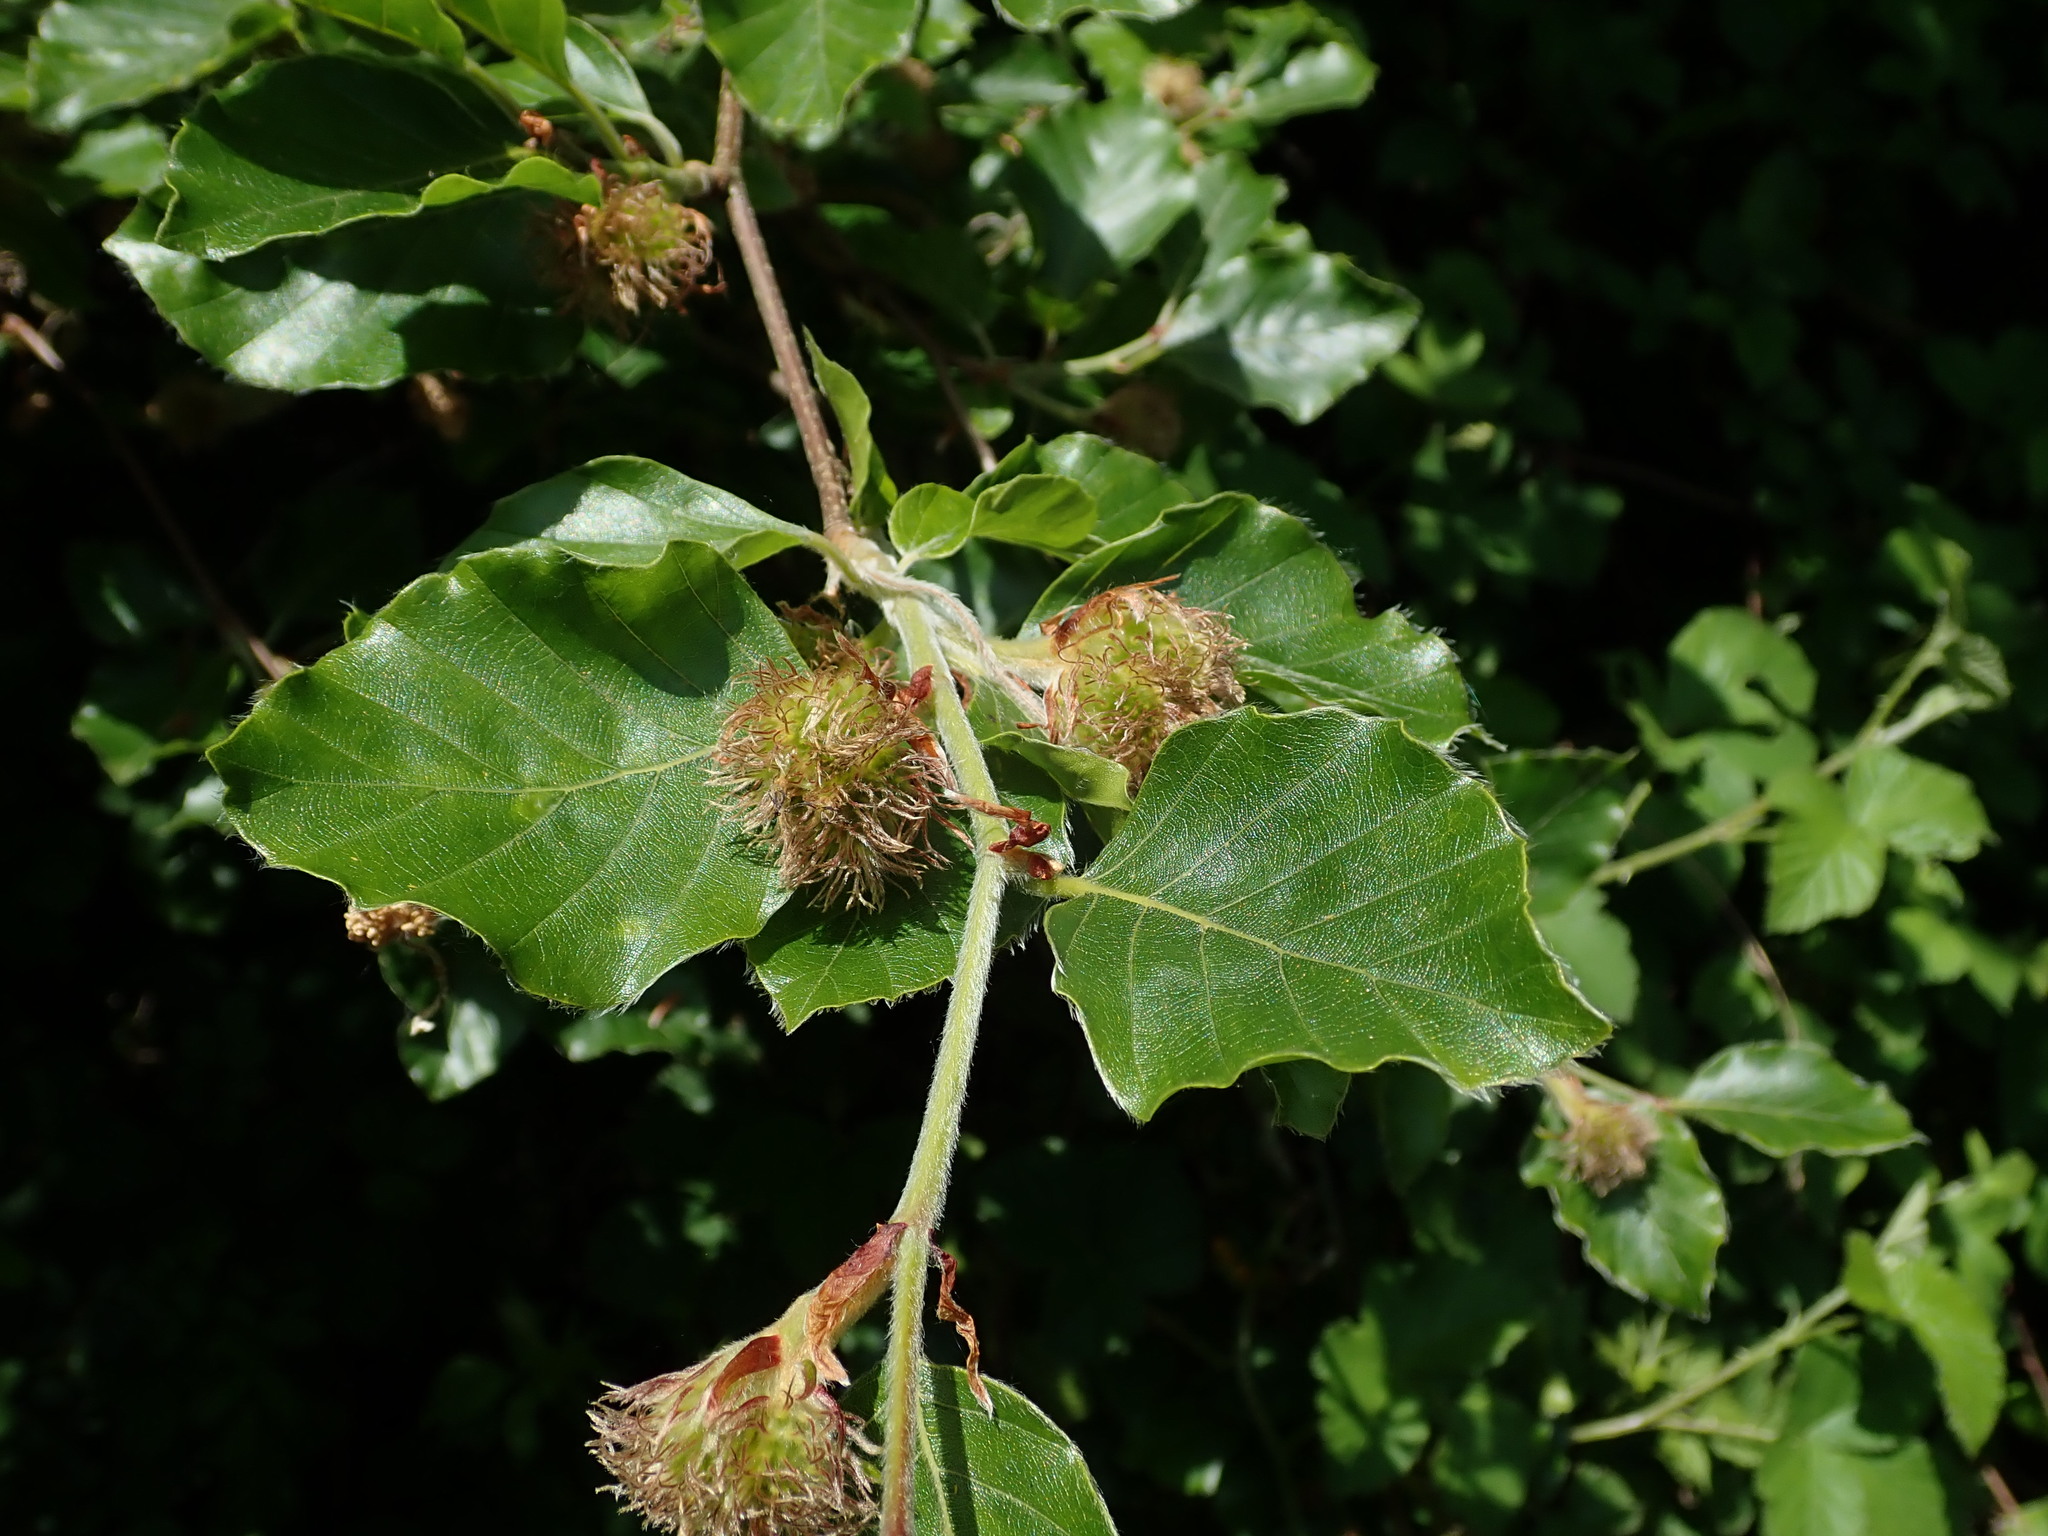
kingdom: Plantae
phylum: Tracheophyta
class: Magnoliopsida
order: Fagales
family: Fagaceae
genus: Fagus
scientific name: Fagus sylvatica
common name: Beech
